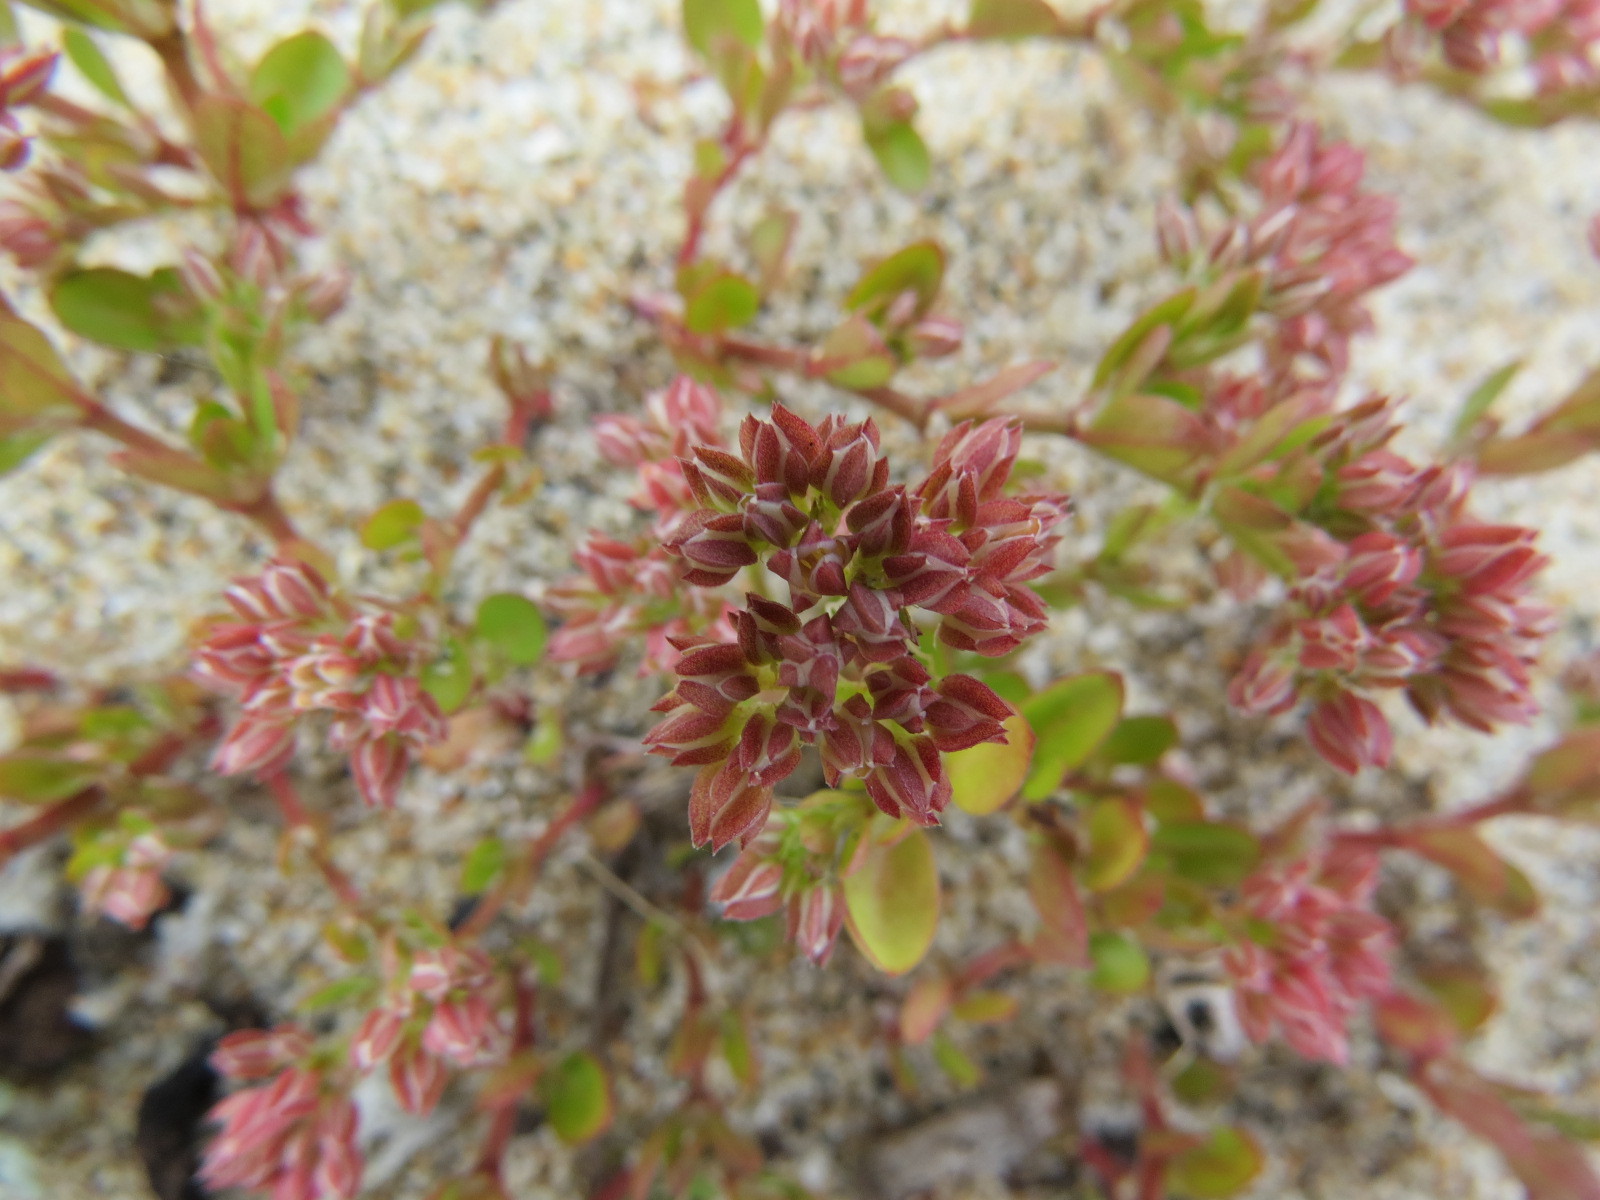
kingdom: Plantae
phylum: Tracheophyta
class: Magnoliopsida
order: Caryophyllales
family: Caryophyllaceae
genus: Polycarpon
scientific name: Polycarpon tetraphyllum
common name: Four-leaved all-seed
